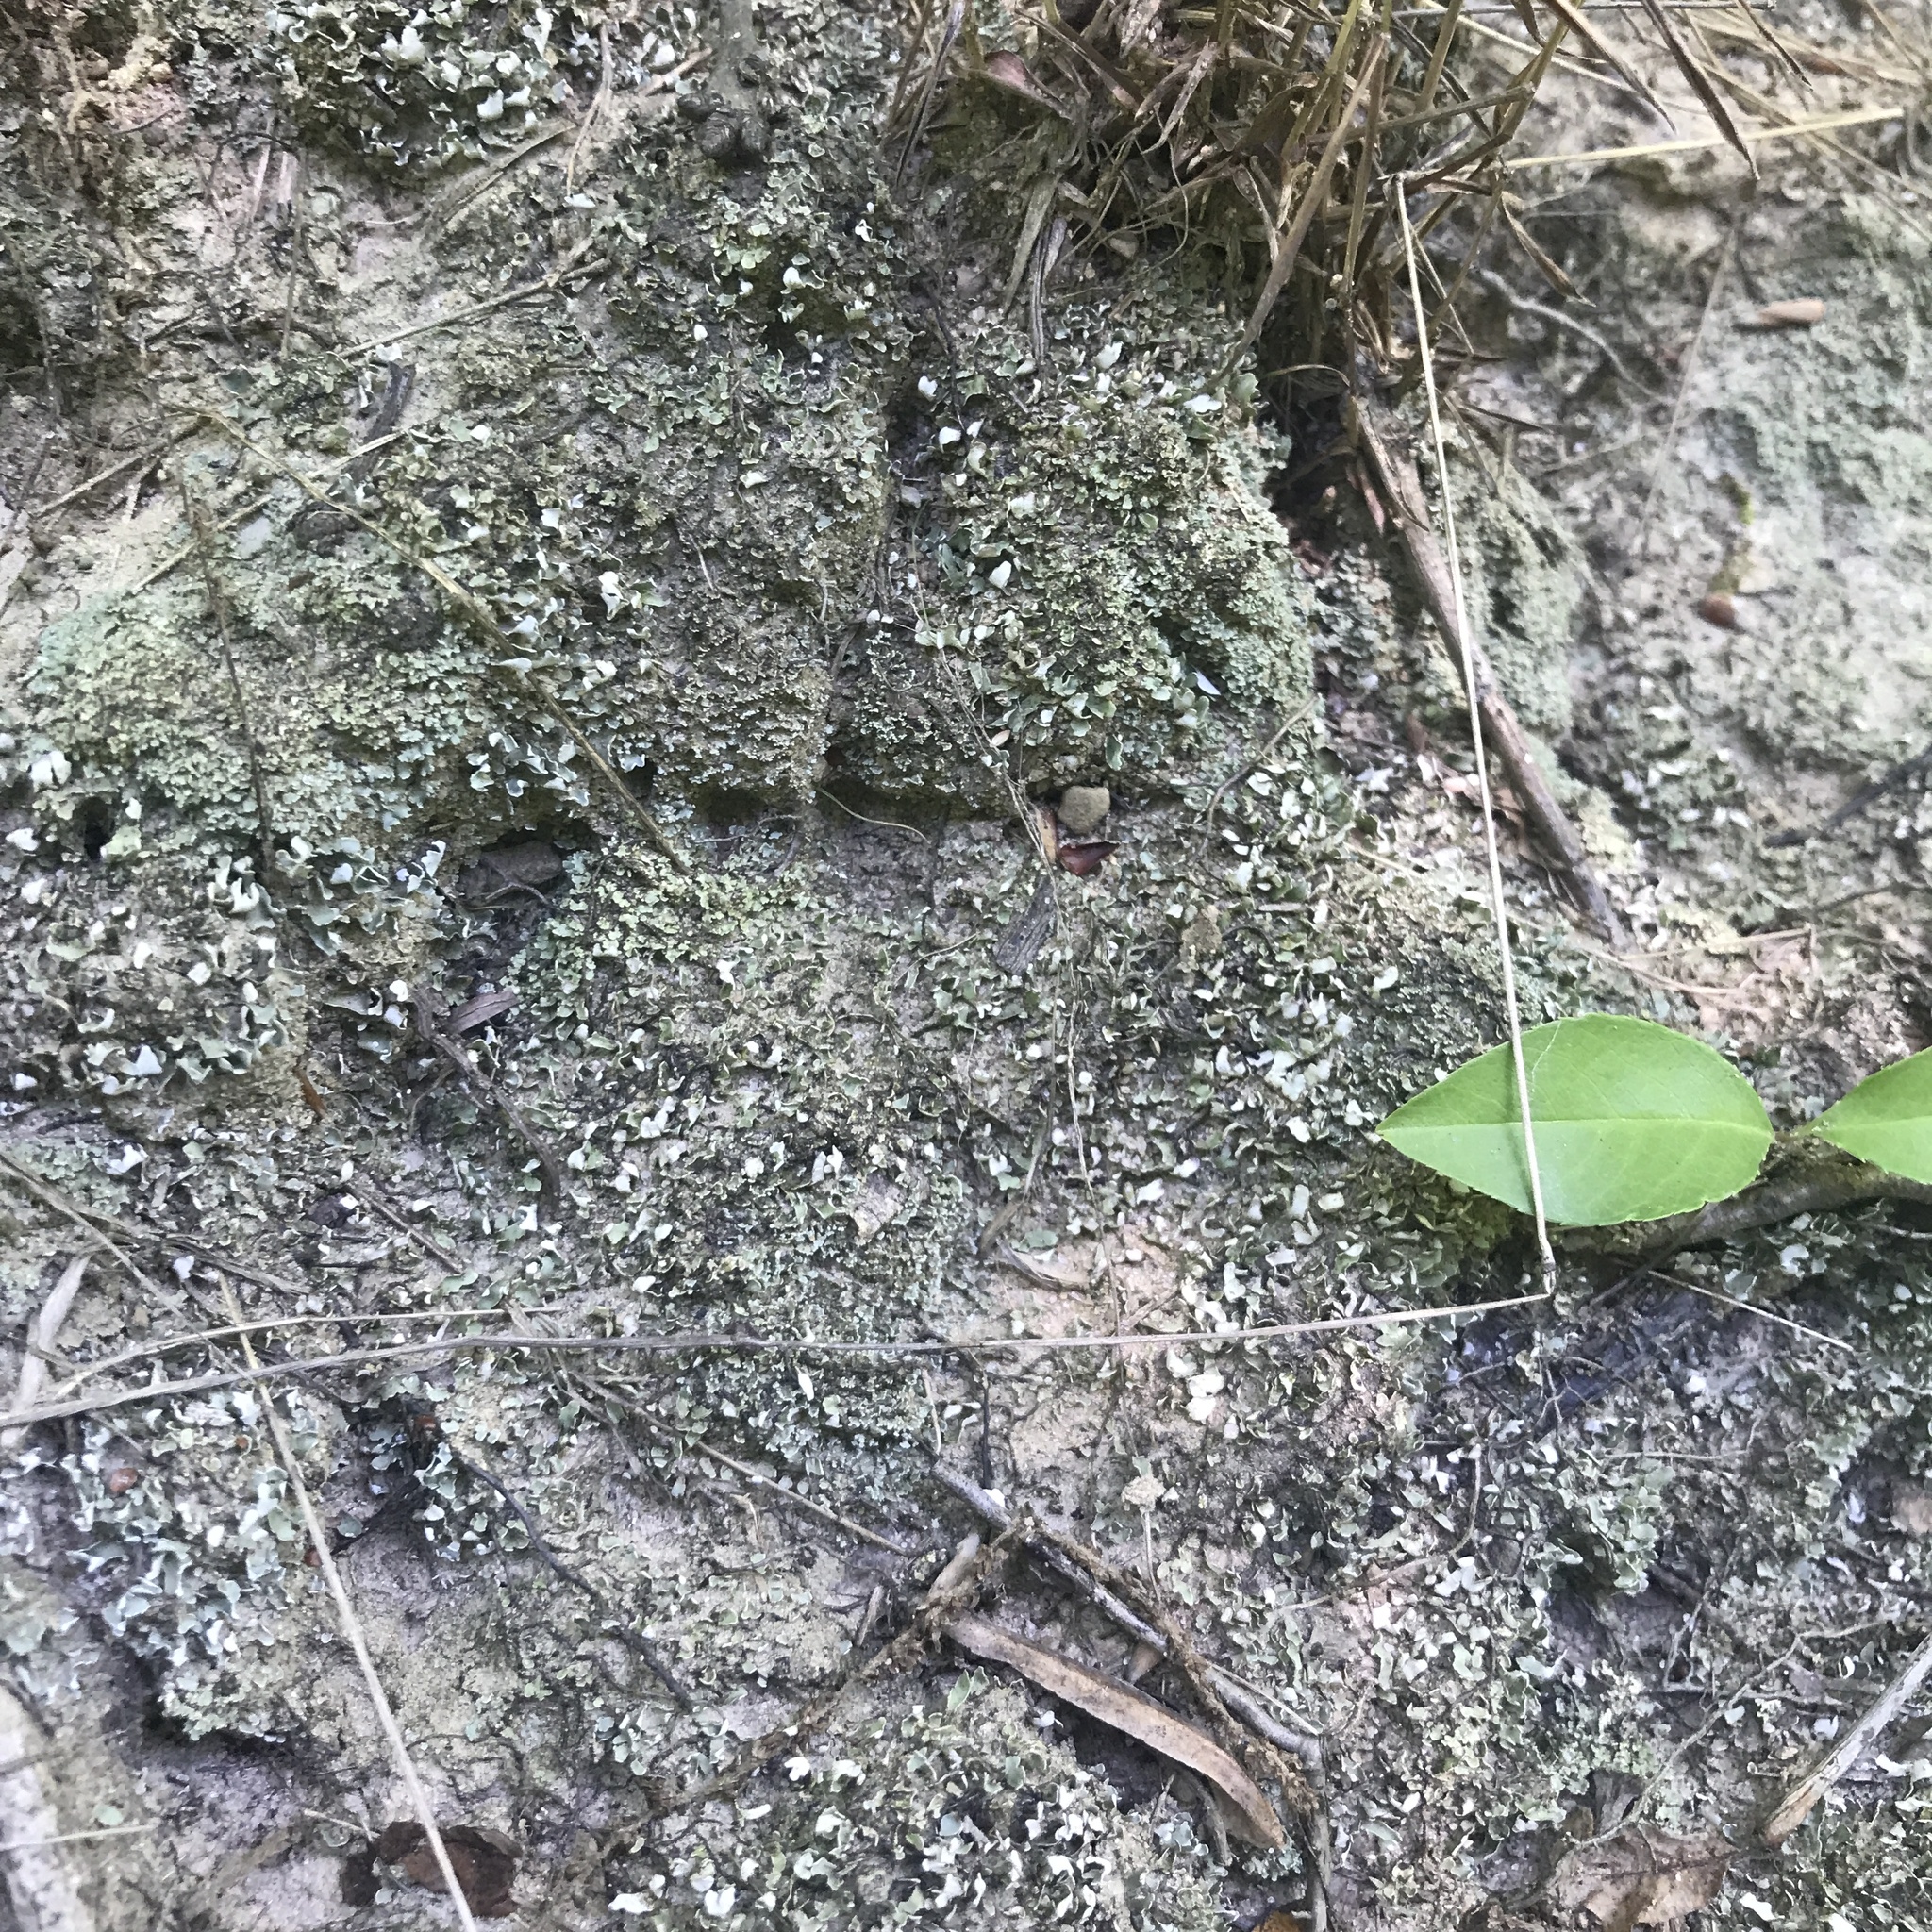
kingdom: Fungi
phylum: Ascomycota
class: Lecanoromycetes
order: Lecanorales
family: Cladoniaceae
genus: Cladonia
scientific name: Cladonia apodocarpa
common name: Stalkless cladonia
